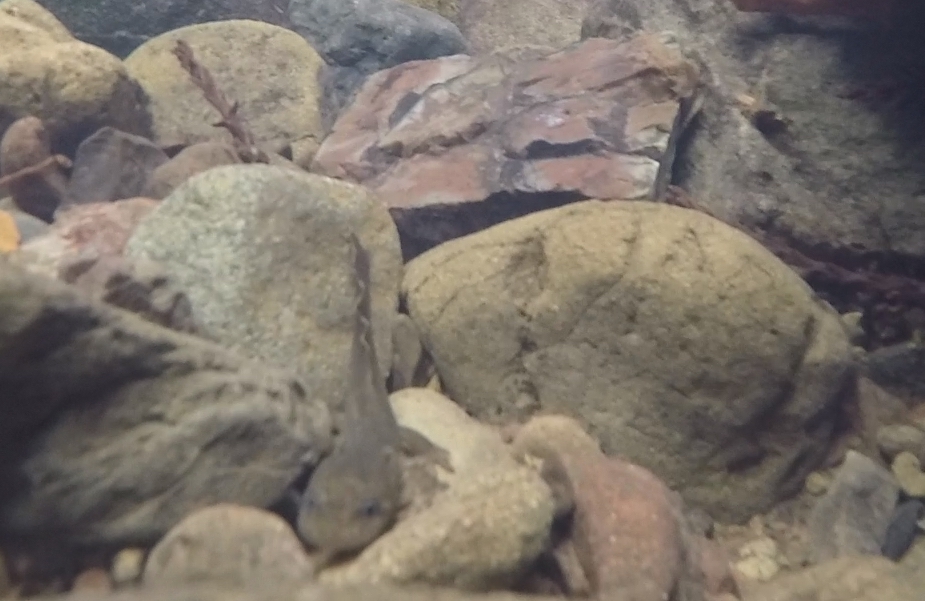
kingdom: Animalia
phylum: Chordata
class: Amphibia
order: Caudata
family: Ambystomatidae
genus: Dicamptodon
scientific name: Dicamptodon ensatus
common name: California giant salamander
